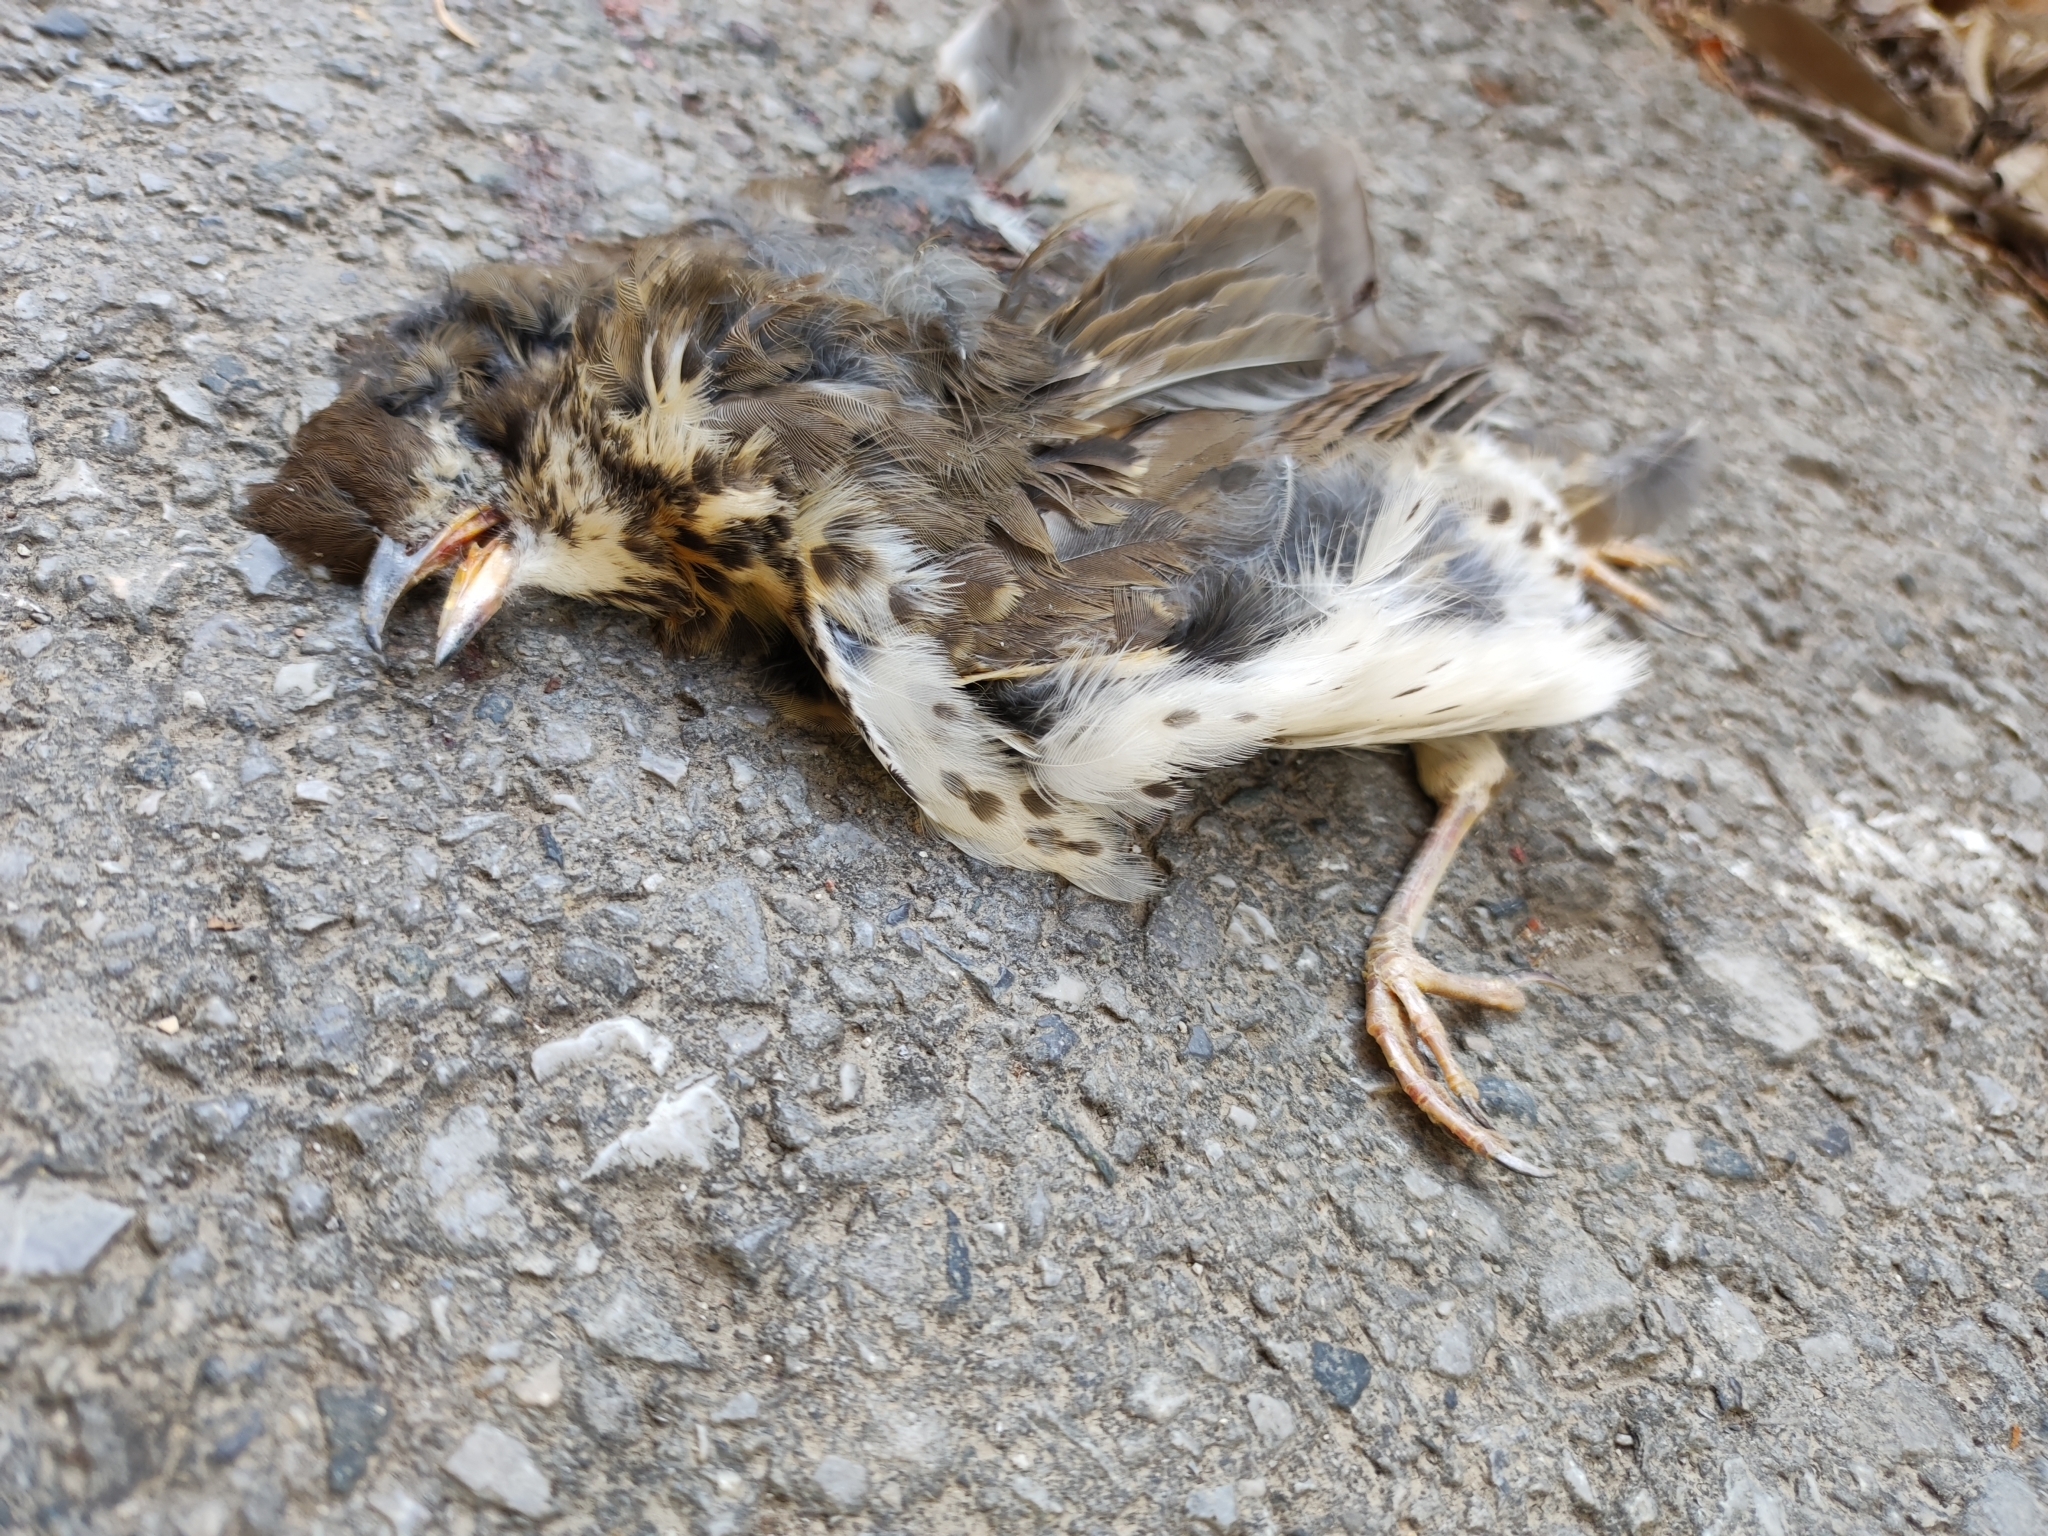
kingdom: Animalia
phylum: Chordata
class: Aves
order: Passeriformes
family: Turdidae
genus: Turdus
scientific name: Turdus philomelos
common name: Song thrush
